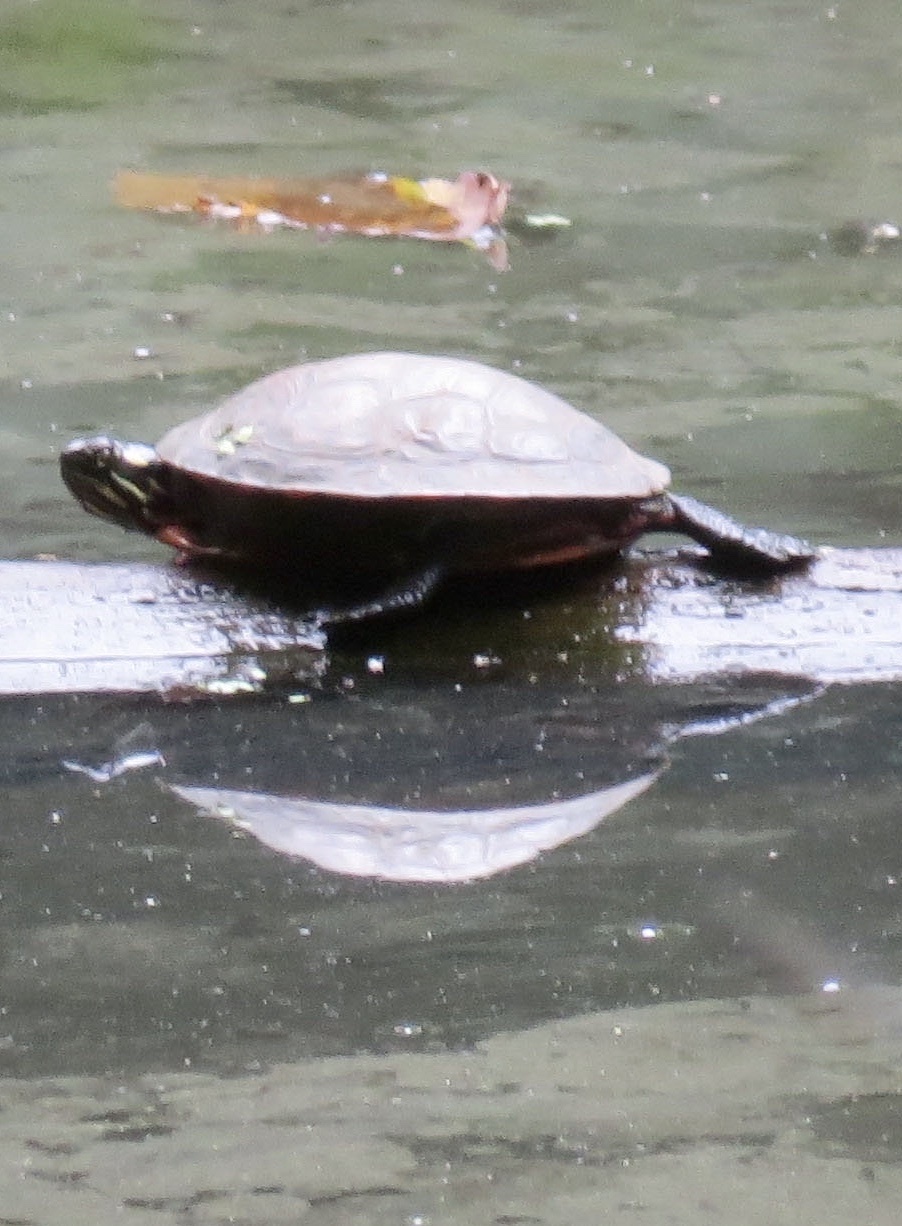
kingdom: Animalia
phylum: Chordata
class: Testudines
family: Emydidae
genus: Chrysemys
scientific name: Chrysemys picta
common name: Painted turtle
